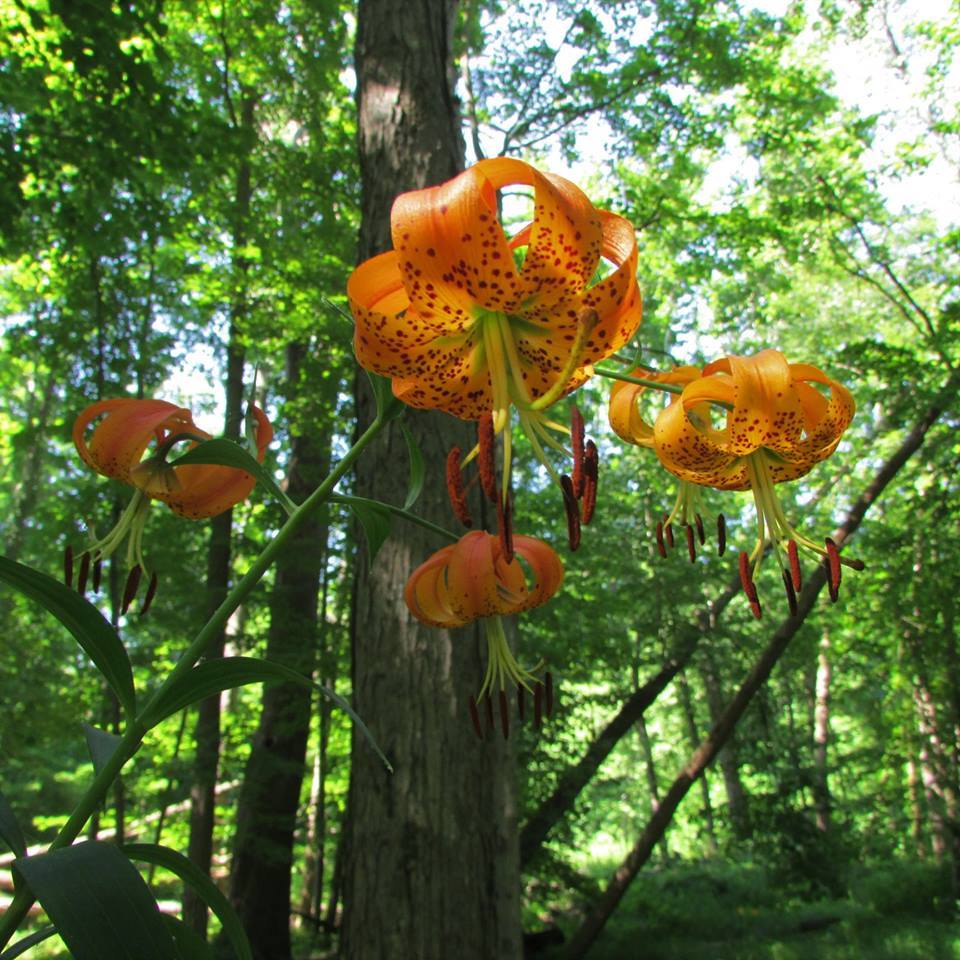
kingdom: Plantae
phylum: Tracheophyta
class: Liliopsida
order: Liliales
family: Liliaceae
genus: Lilium
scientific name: Lilium superbum
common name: American turk's-cap lily
